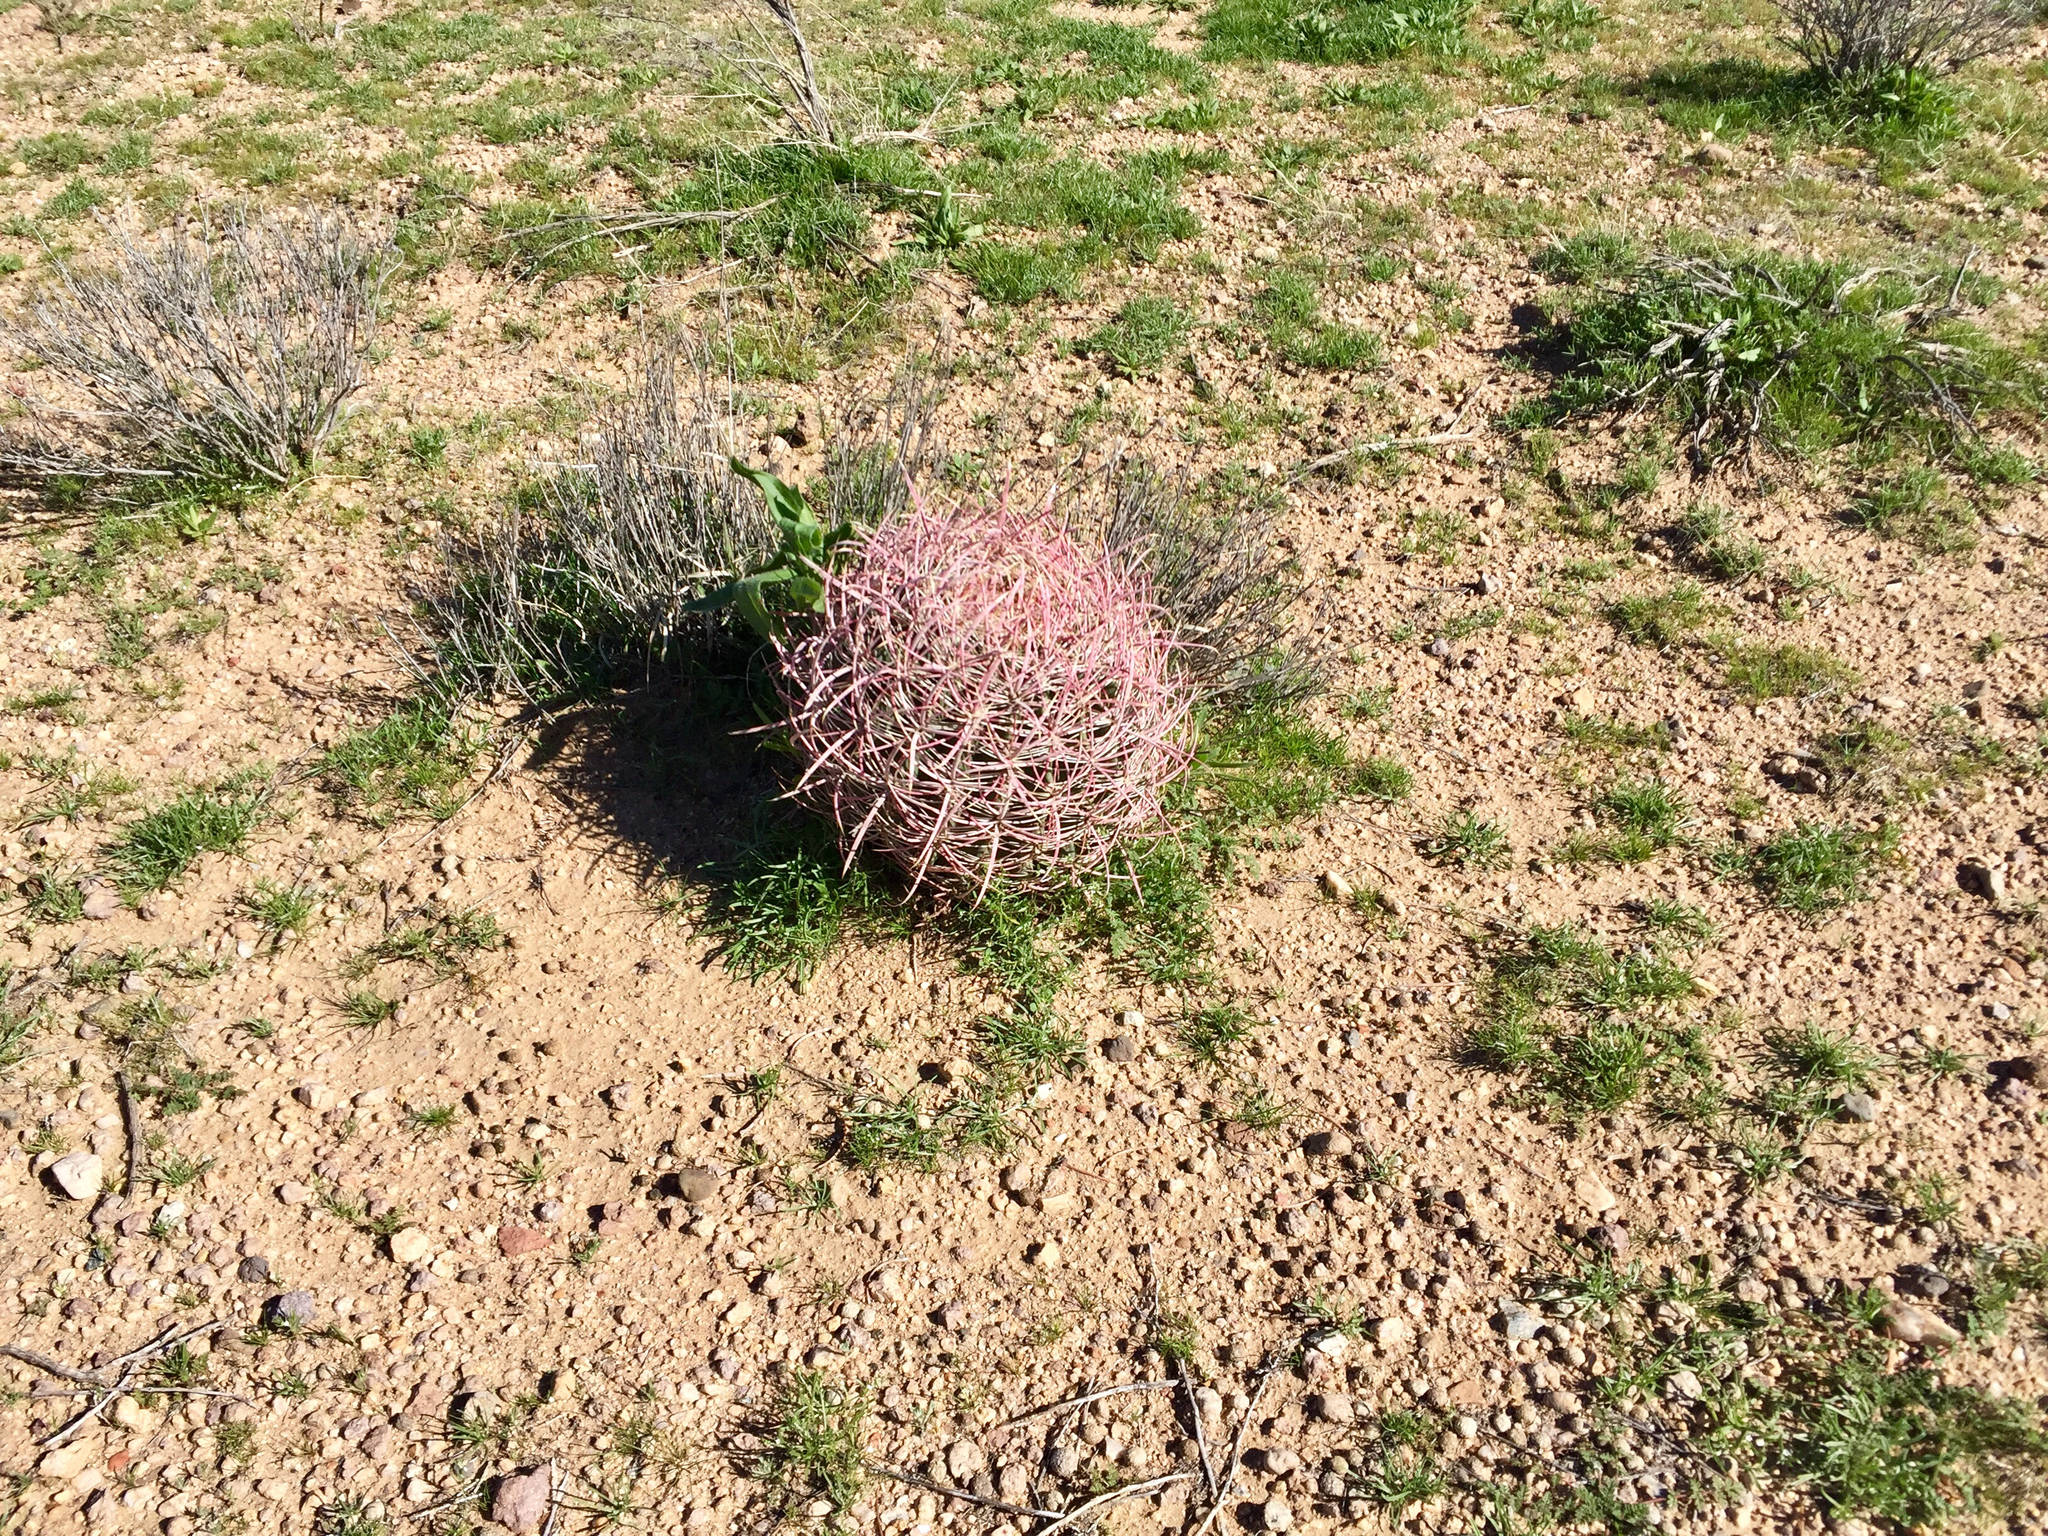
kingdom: Plantae
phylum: Tracheophyta
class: Magnoliopsida
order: Caryophyllales
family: Cactaceae
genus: Ferocactus
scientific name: Ferocactus cylindraceus
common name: California barrel cactus
